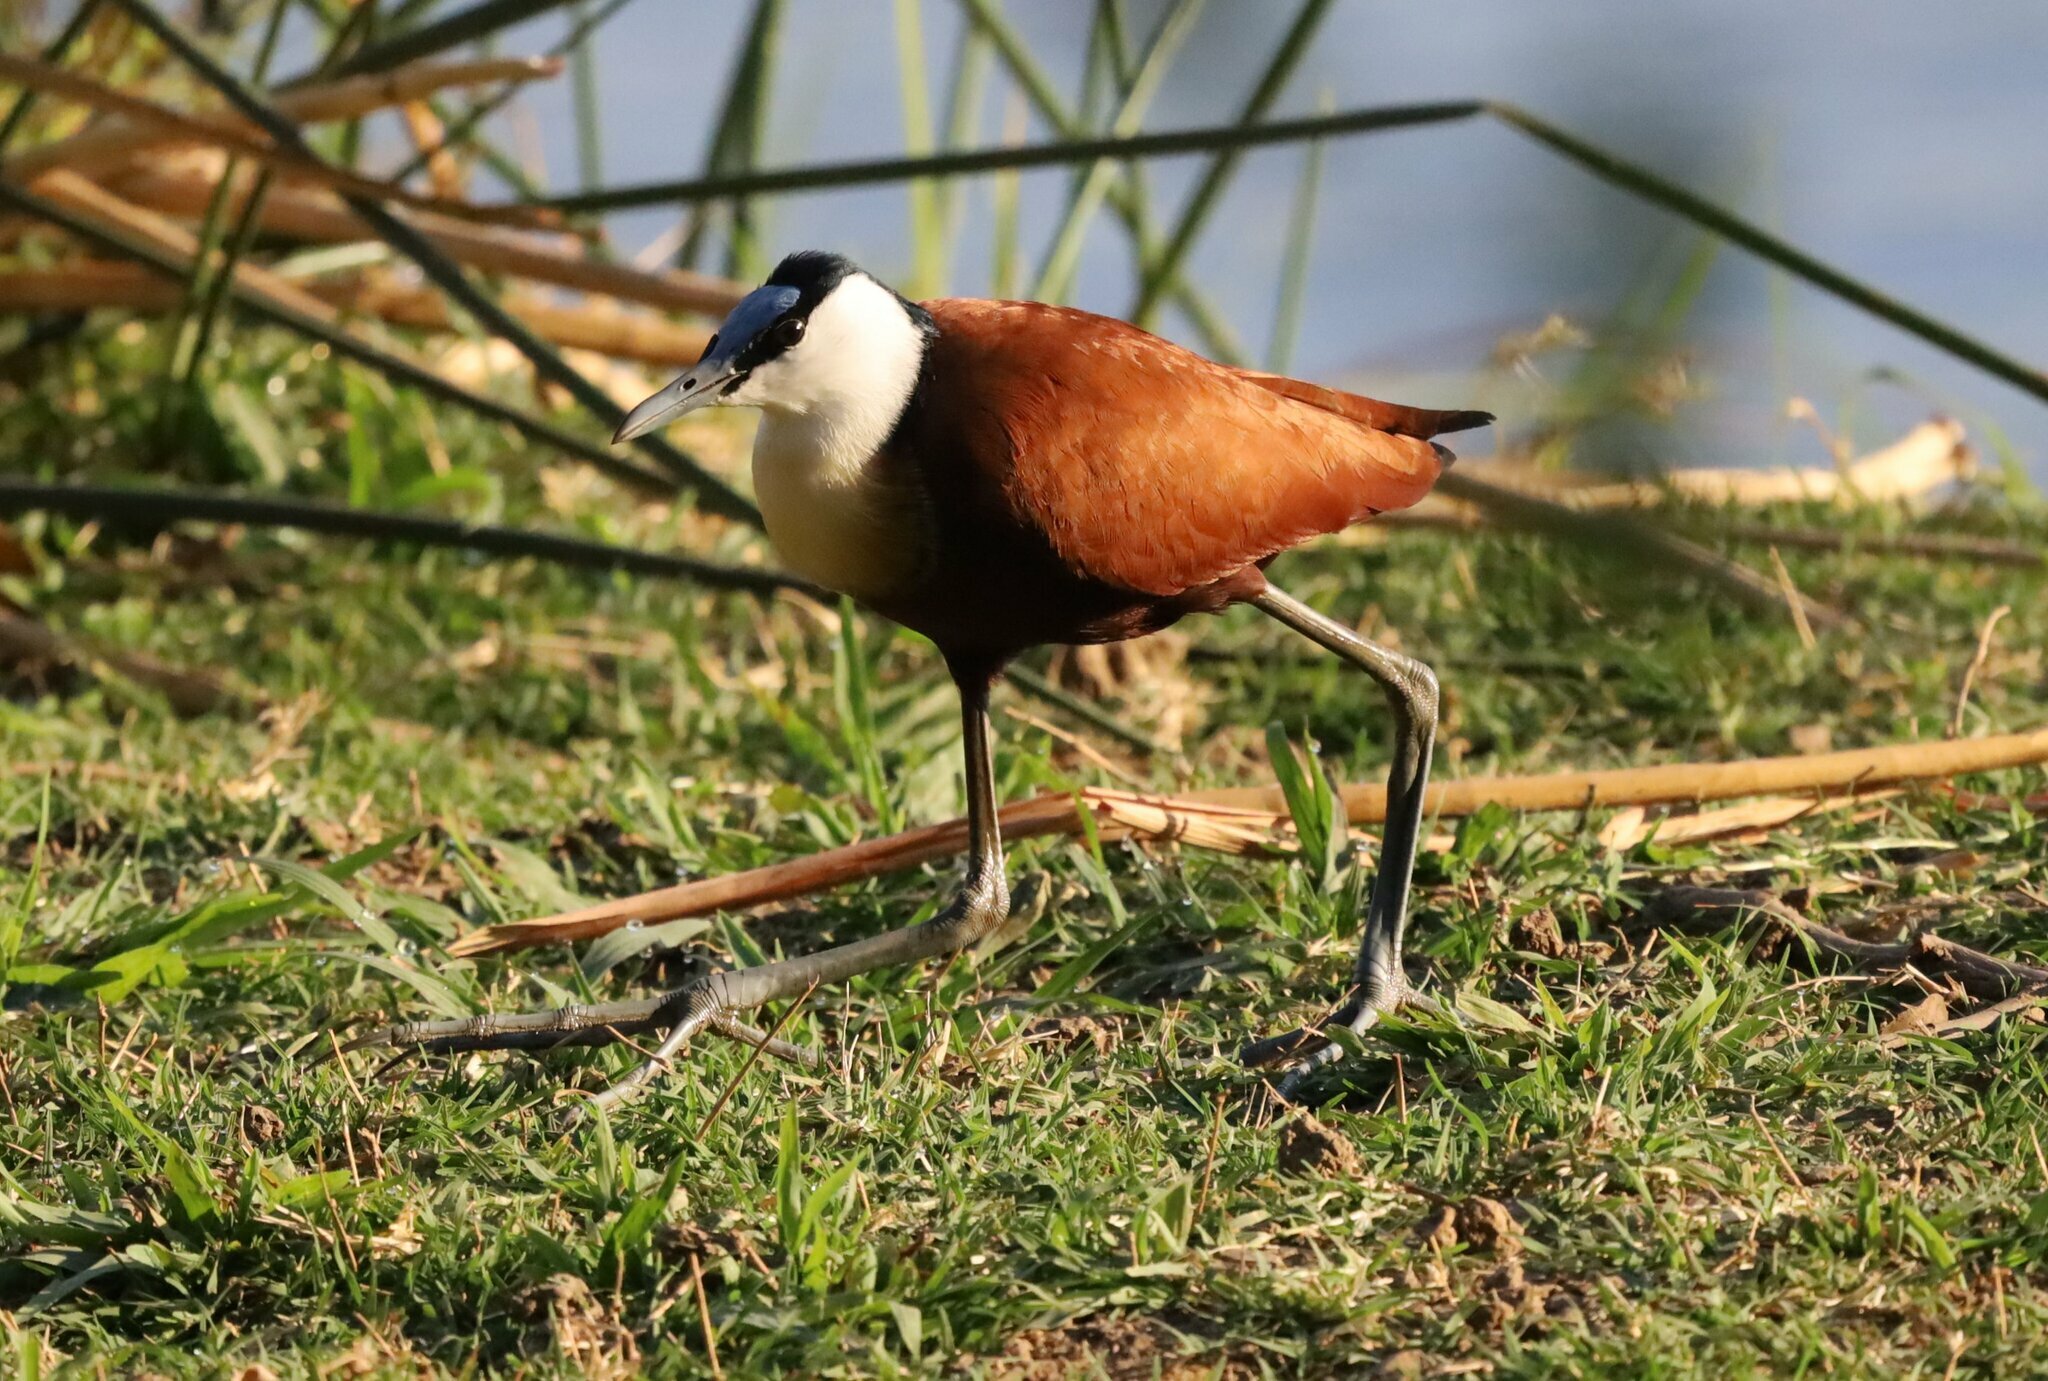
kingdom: Animalia
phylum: Chordata
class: Aves
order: Charadriiformes
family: Jacanidae
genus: Actophilornis
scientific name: Actophilornis africanus
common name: African jacana
